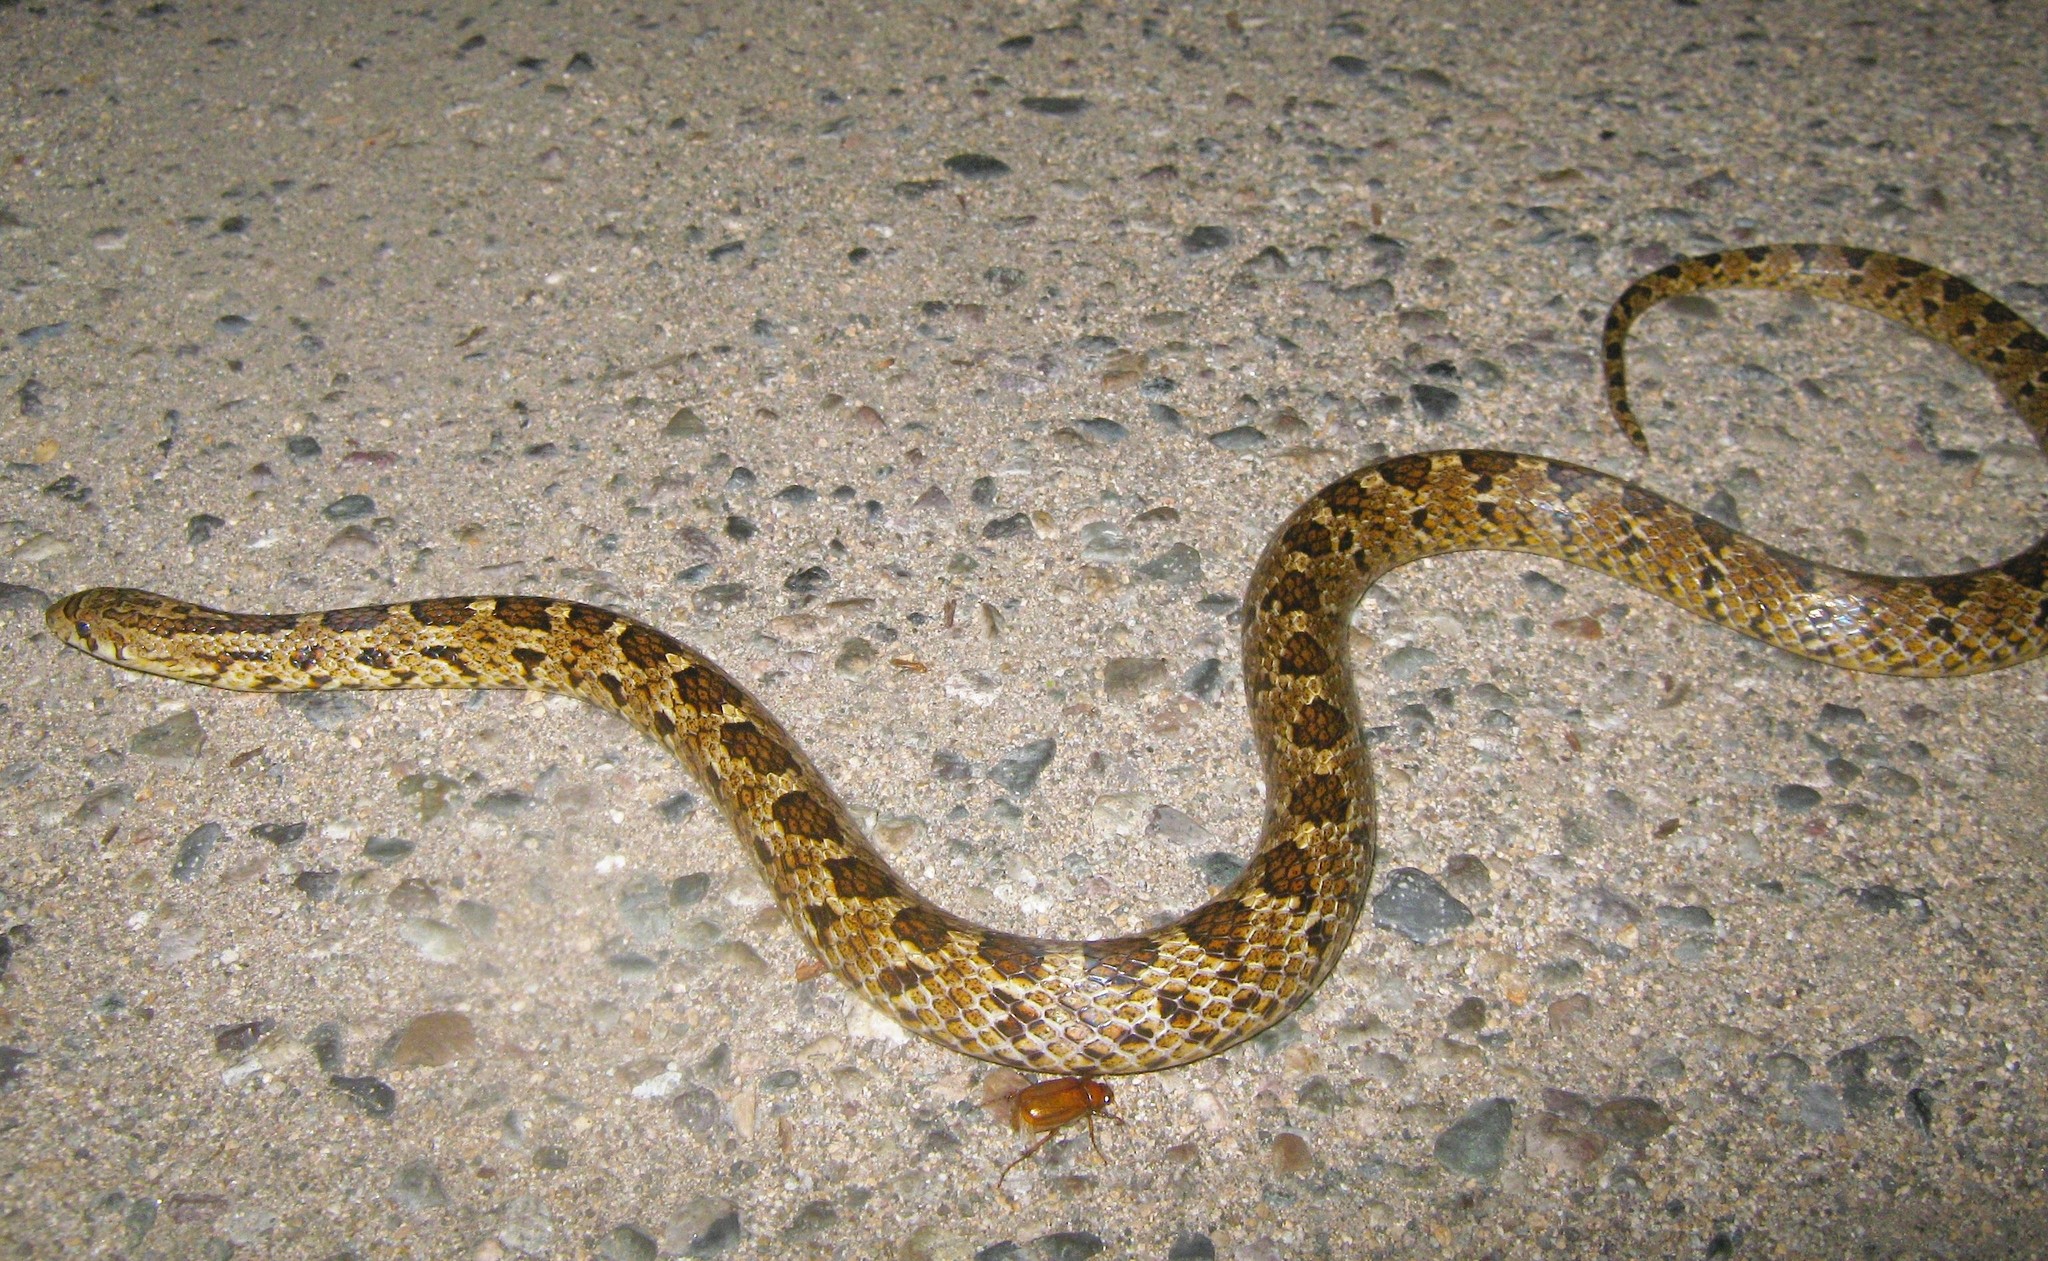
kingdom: Animalia
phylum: Chordata
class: Squamata
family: Colubridae
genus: Pseudoficimia
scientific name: Pseudoficimia frontalis
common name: False ficimia
